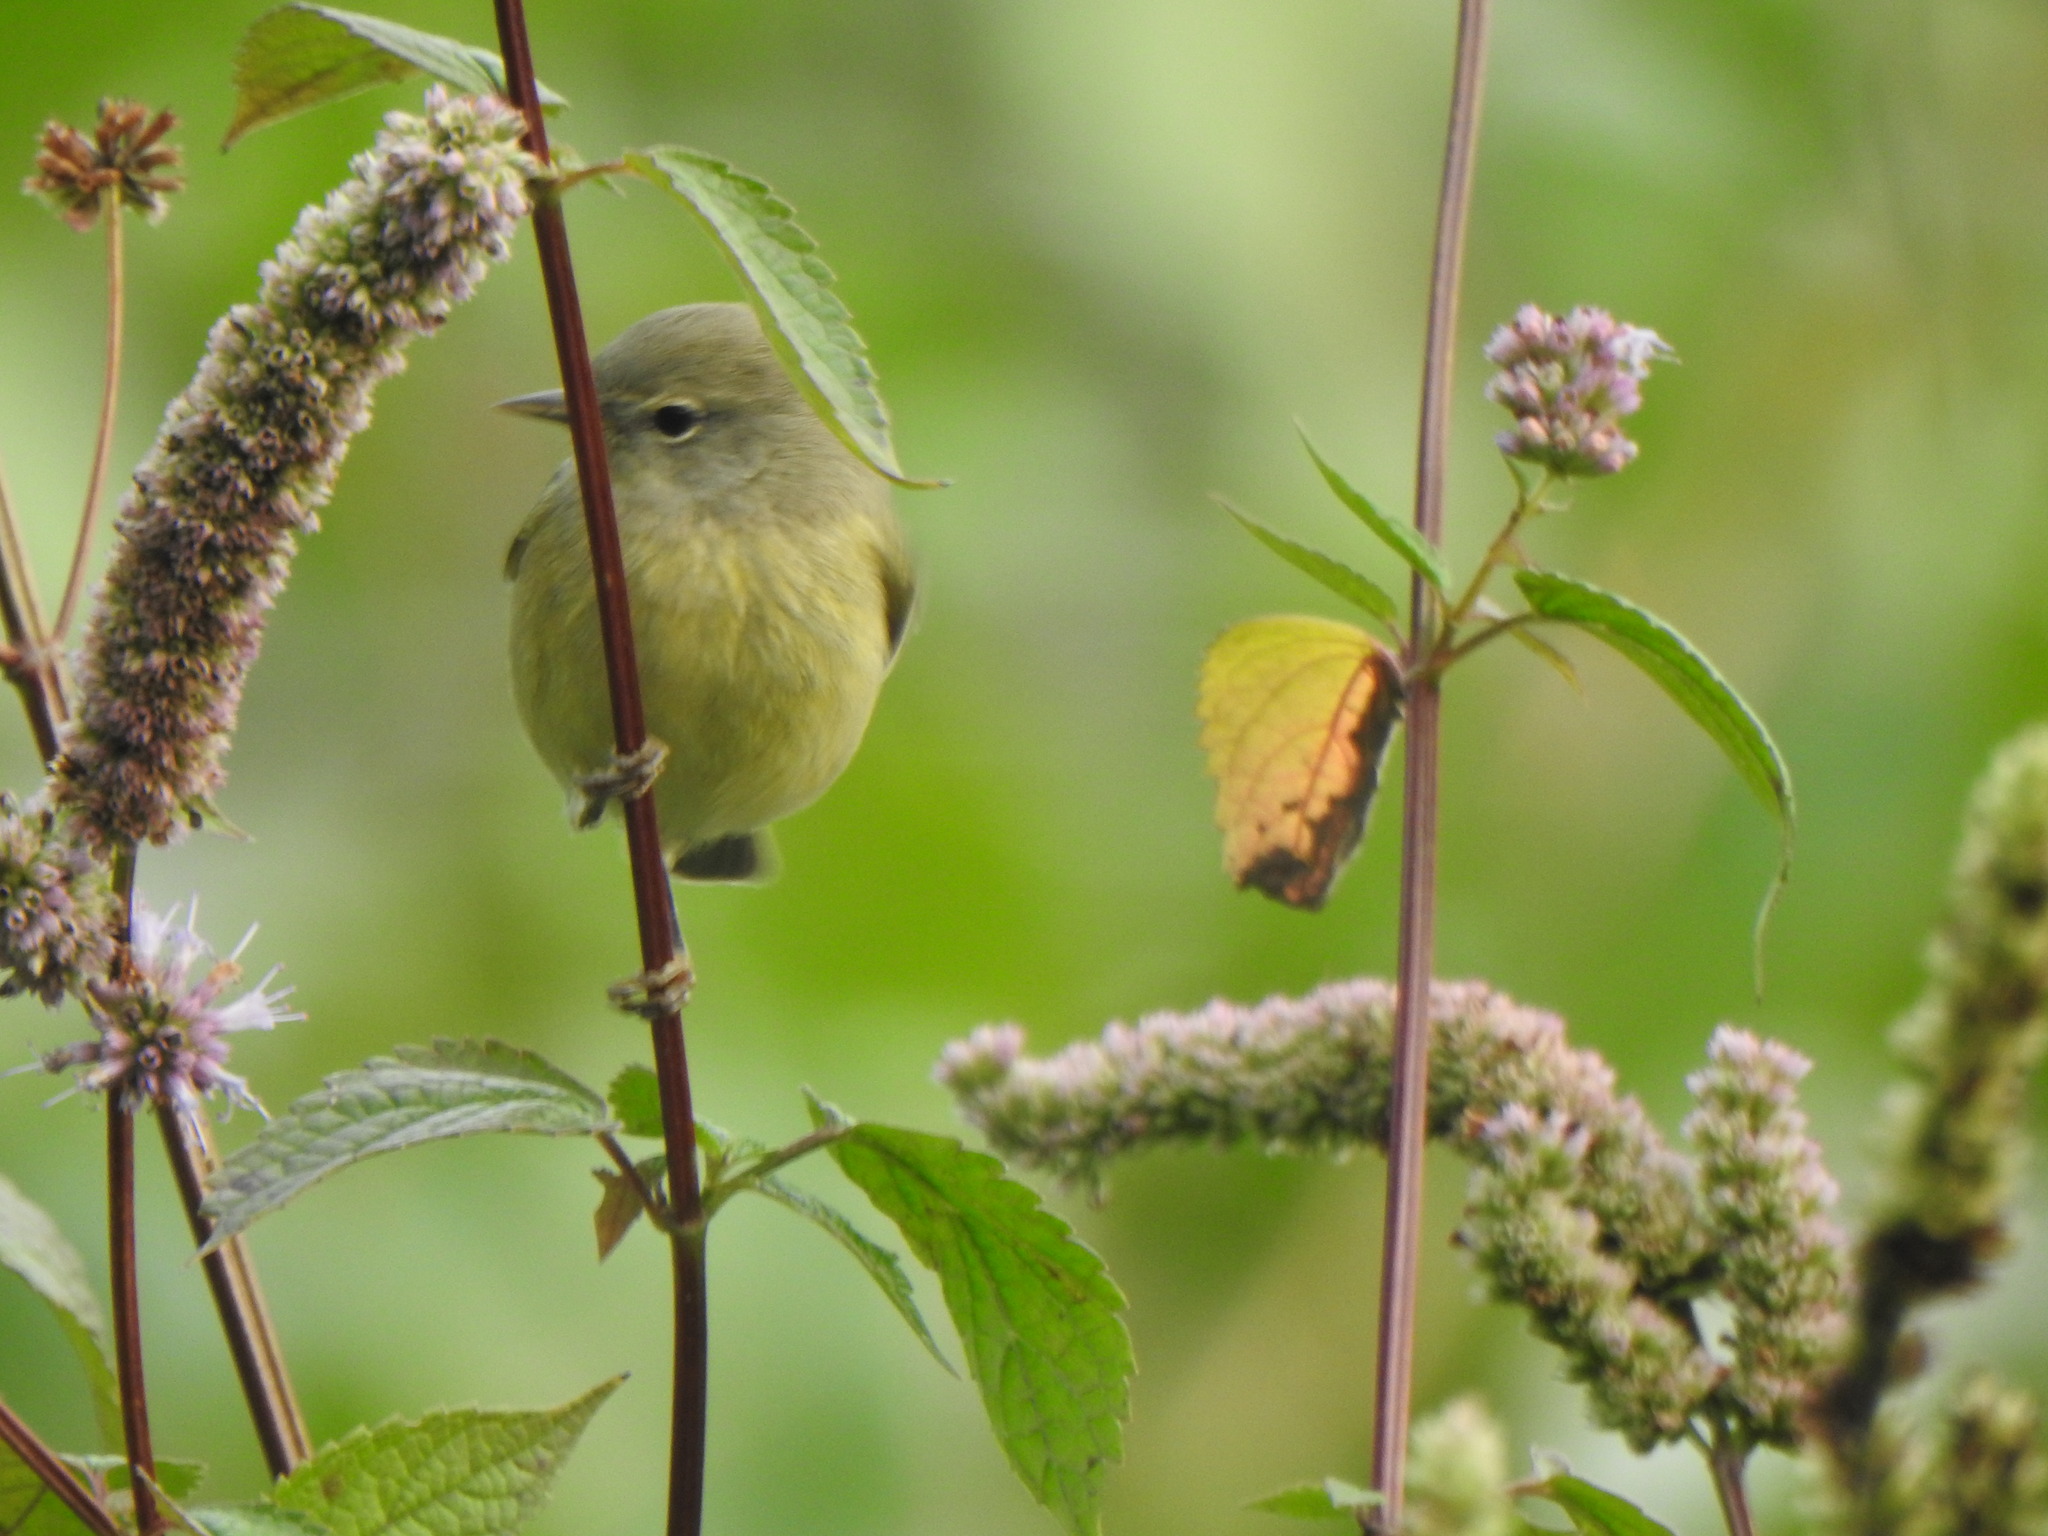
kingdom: Animalia
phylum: Chordata
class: Aves
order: Passeriformes
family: Parulidae
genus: Leiothlypis
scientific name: Leiothlypis celata
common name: Orange-crowned warbler
